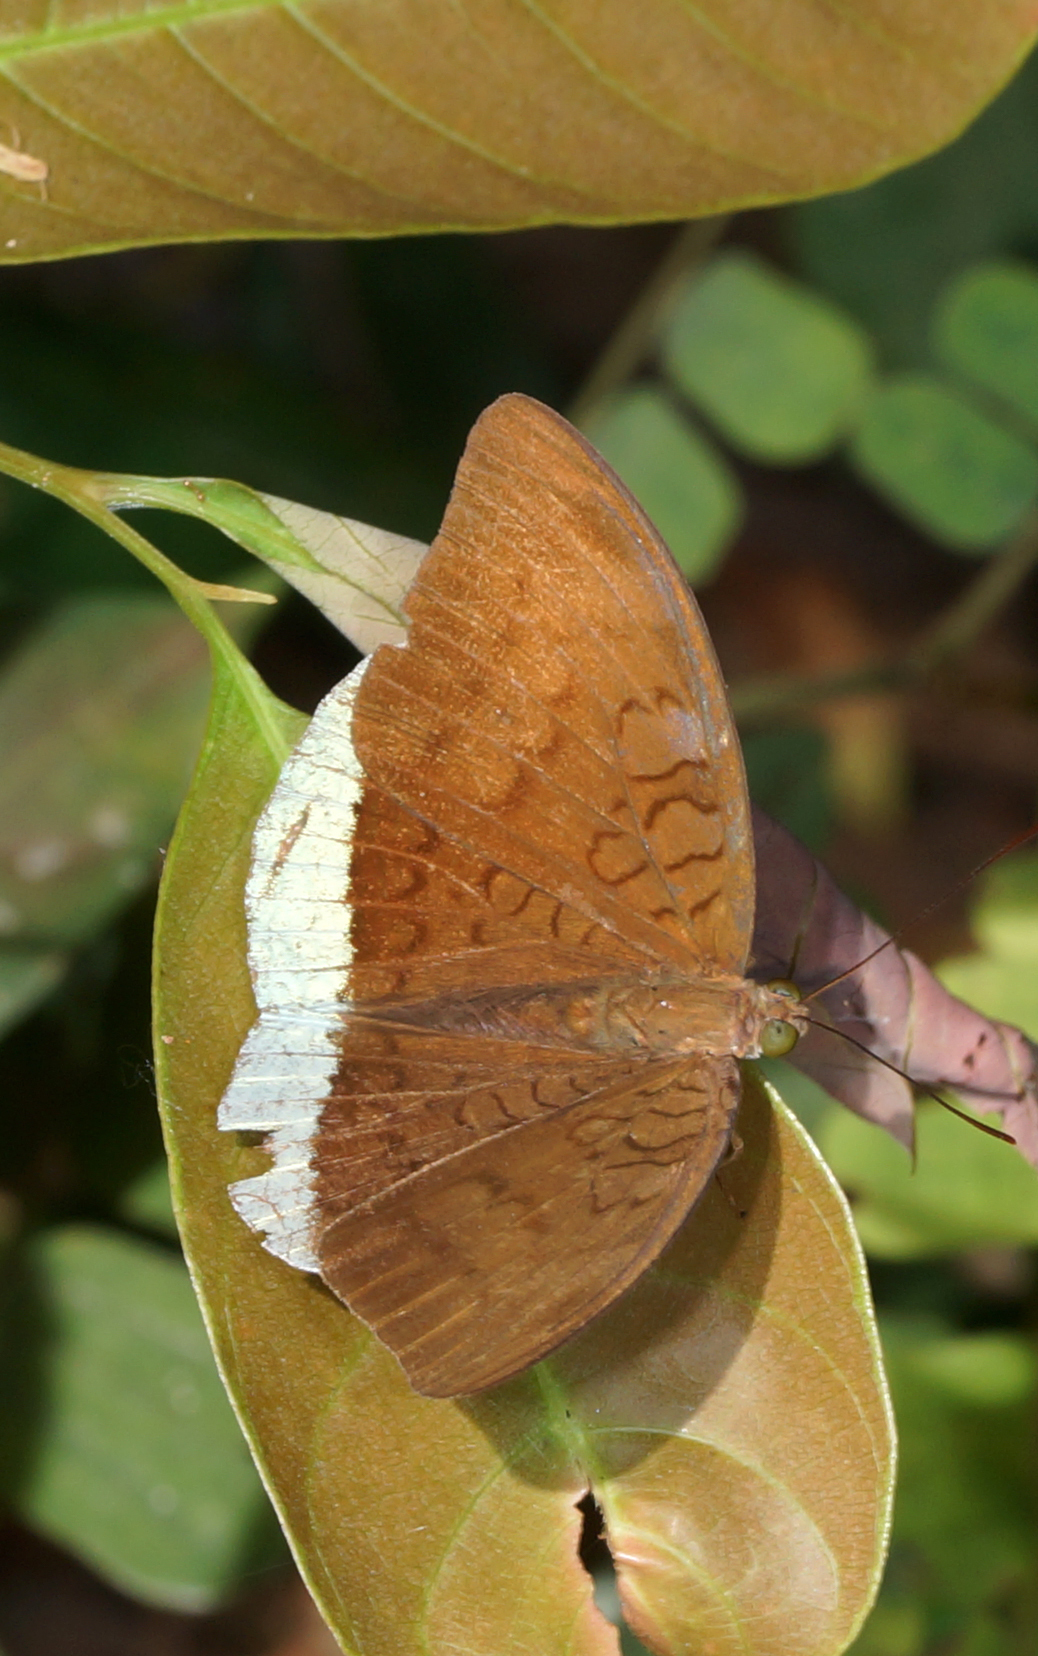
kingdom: Animalia
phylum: Arthropoda
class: Insecta
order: Lepidoptera
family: Nymphalidae
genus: Tanaecia
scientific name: Tanaecia julii
